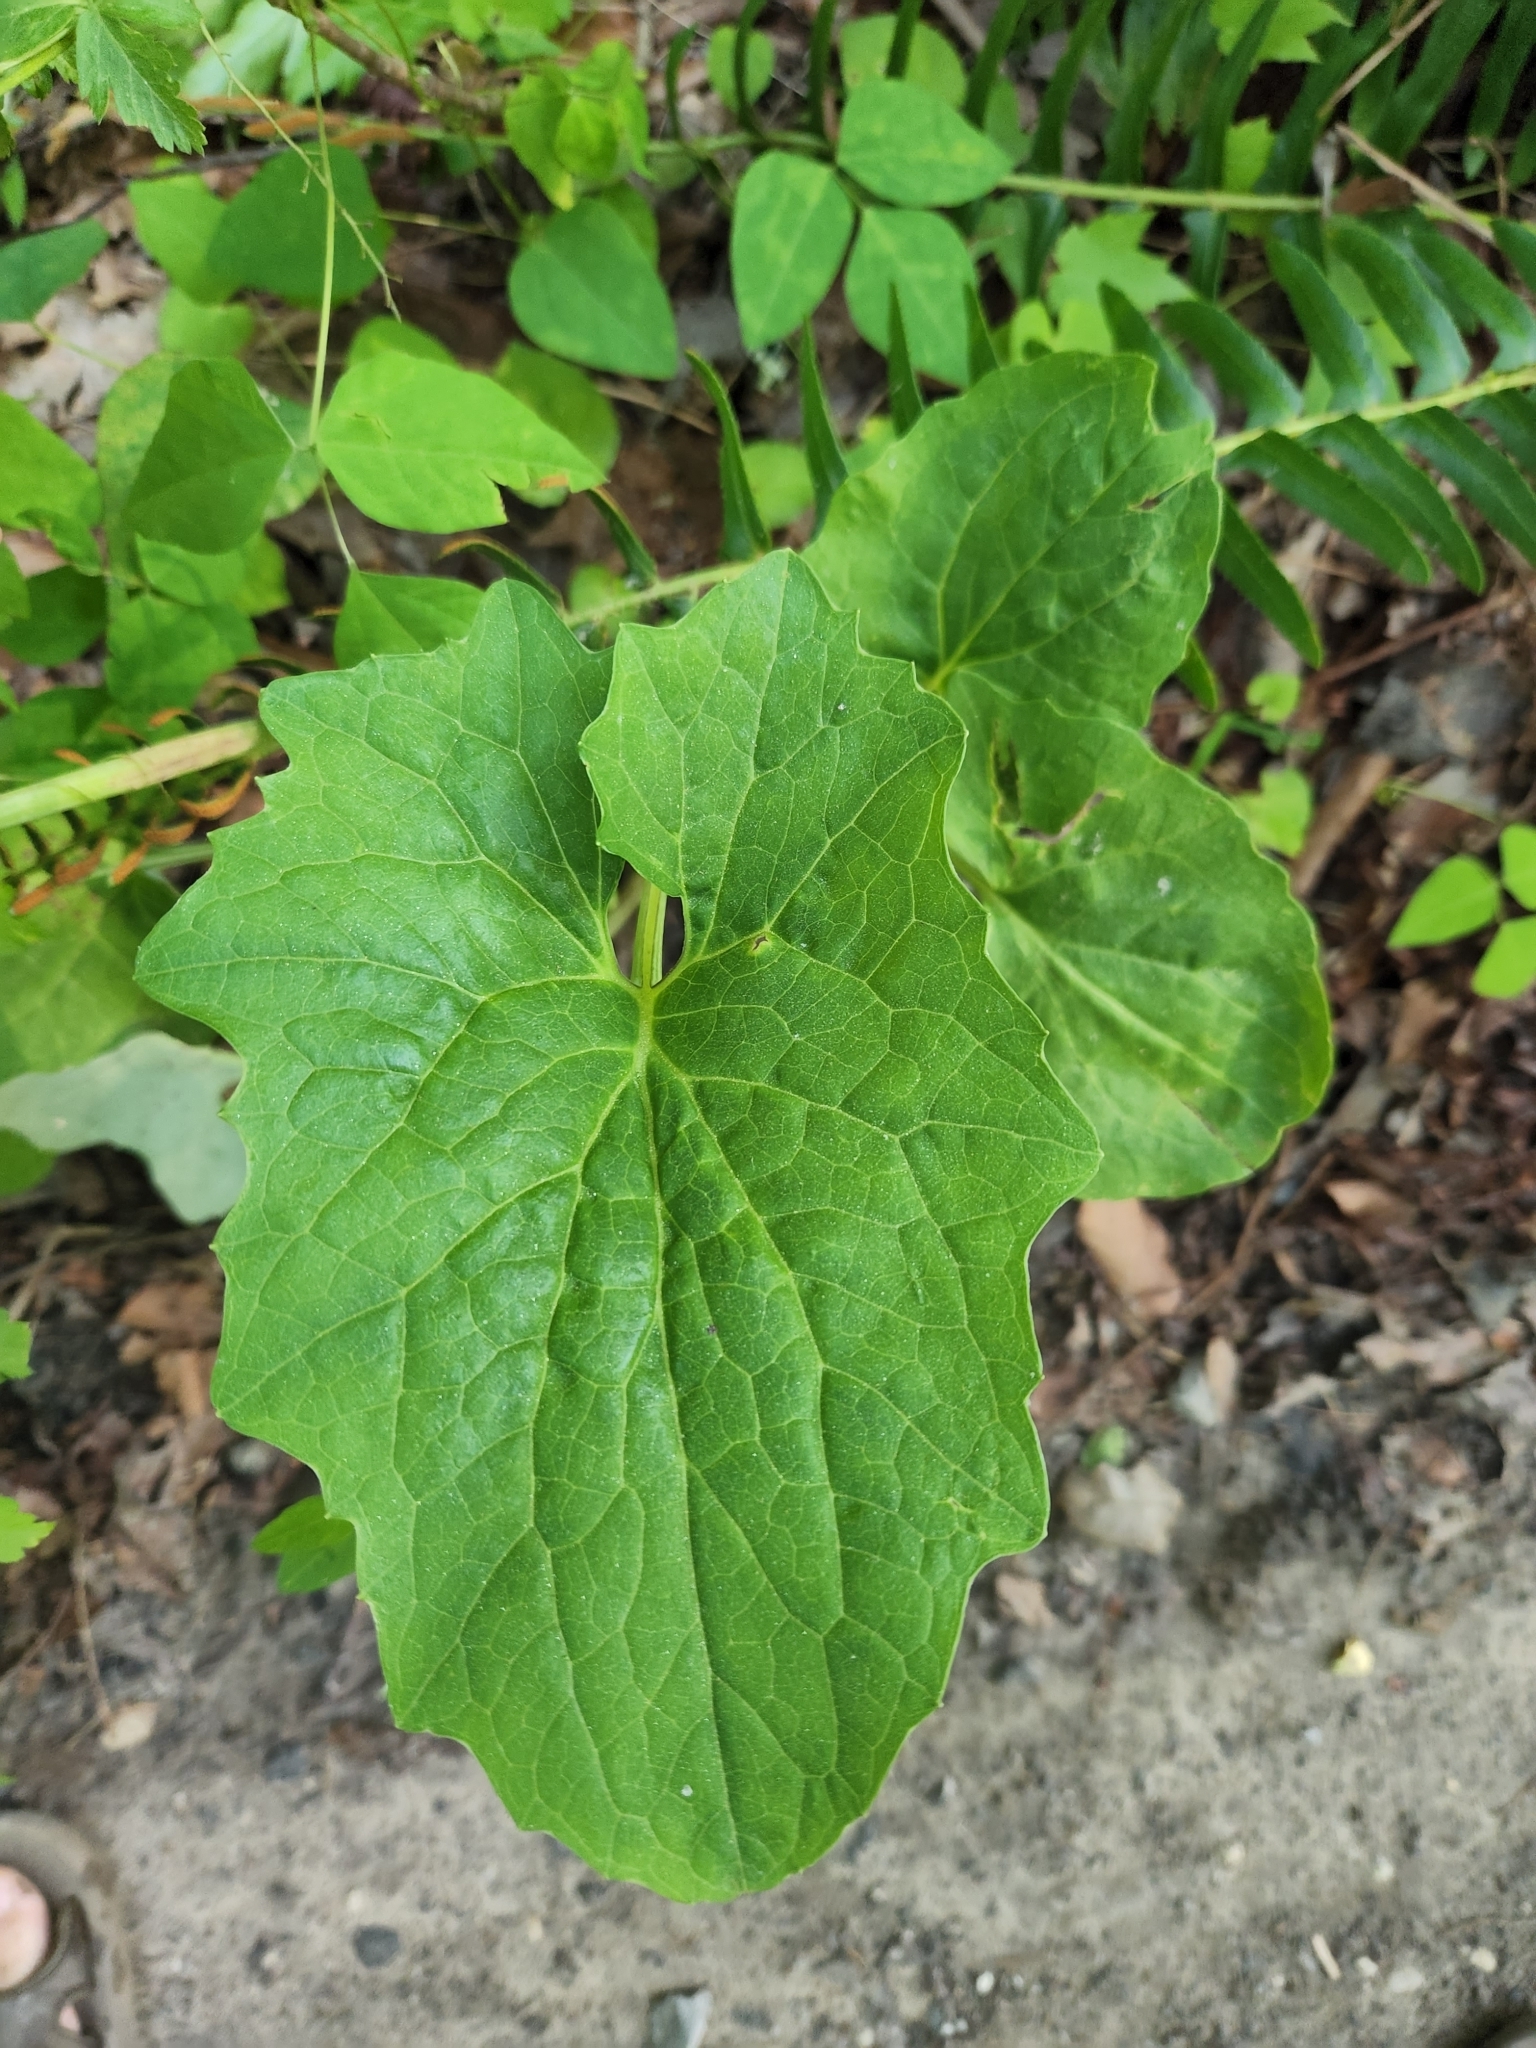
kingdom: Plantae
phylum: Tracheophyta
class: Magnoliopsida
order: Asterales
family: Asteraceae
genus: Arnoglossum
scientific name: Arnoglossum atriplicifolium
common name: Pale indian-plantain
